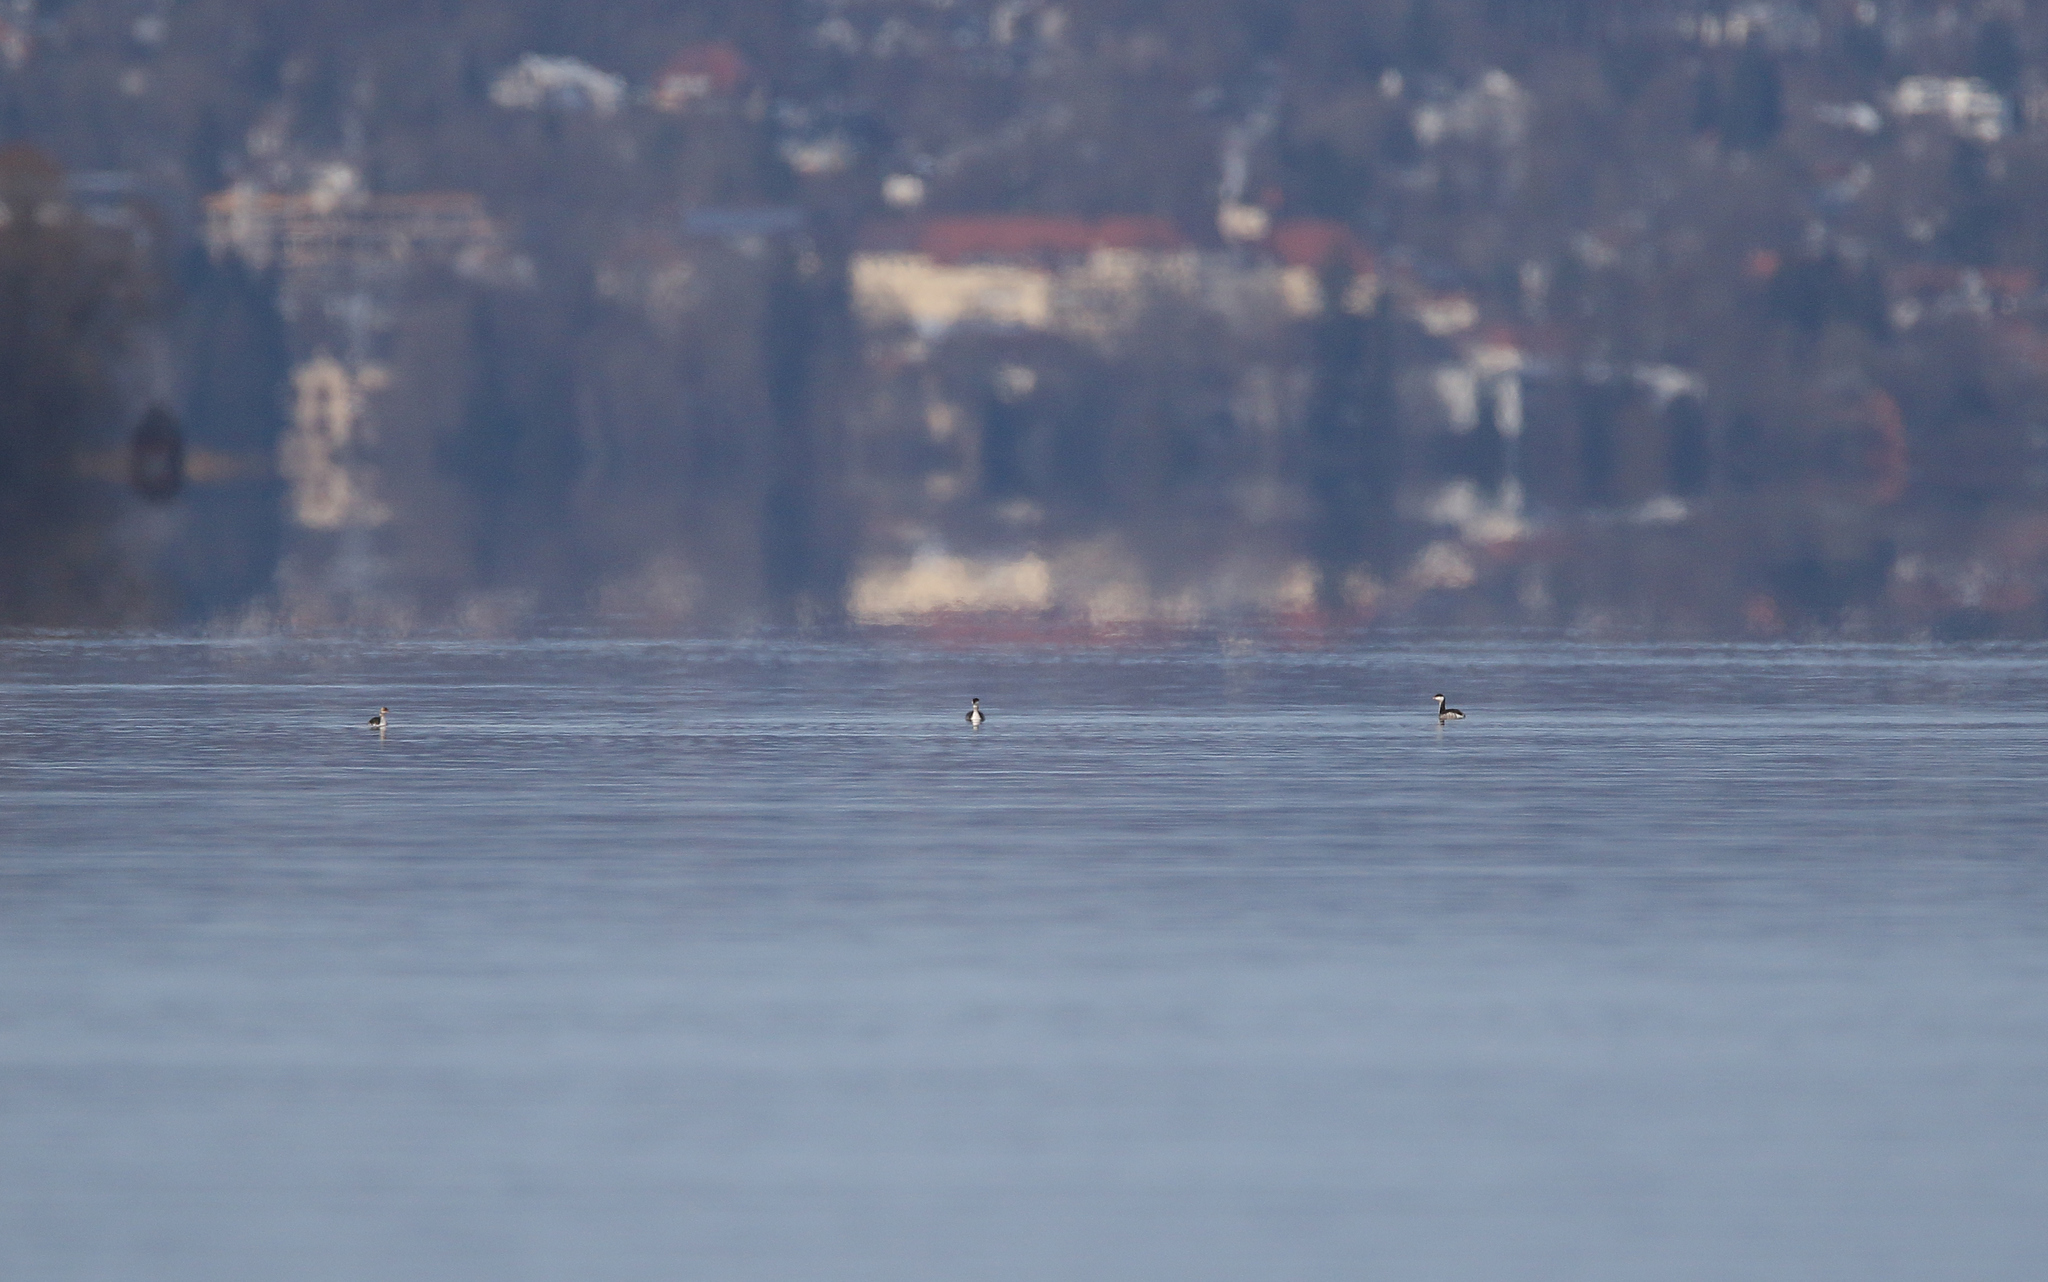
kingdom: Animalia
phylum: Chordata
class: Aves
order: Podicipediformes
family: Podicipedidae
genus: Podiceps
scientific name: Podiceps auritus
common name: Horned grebe
